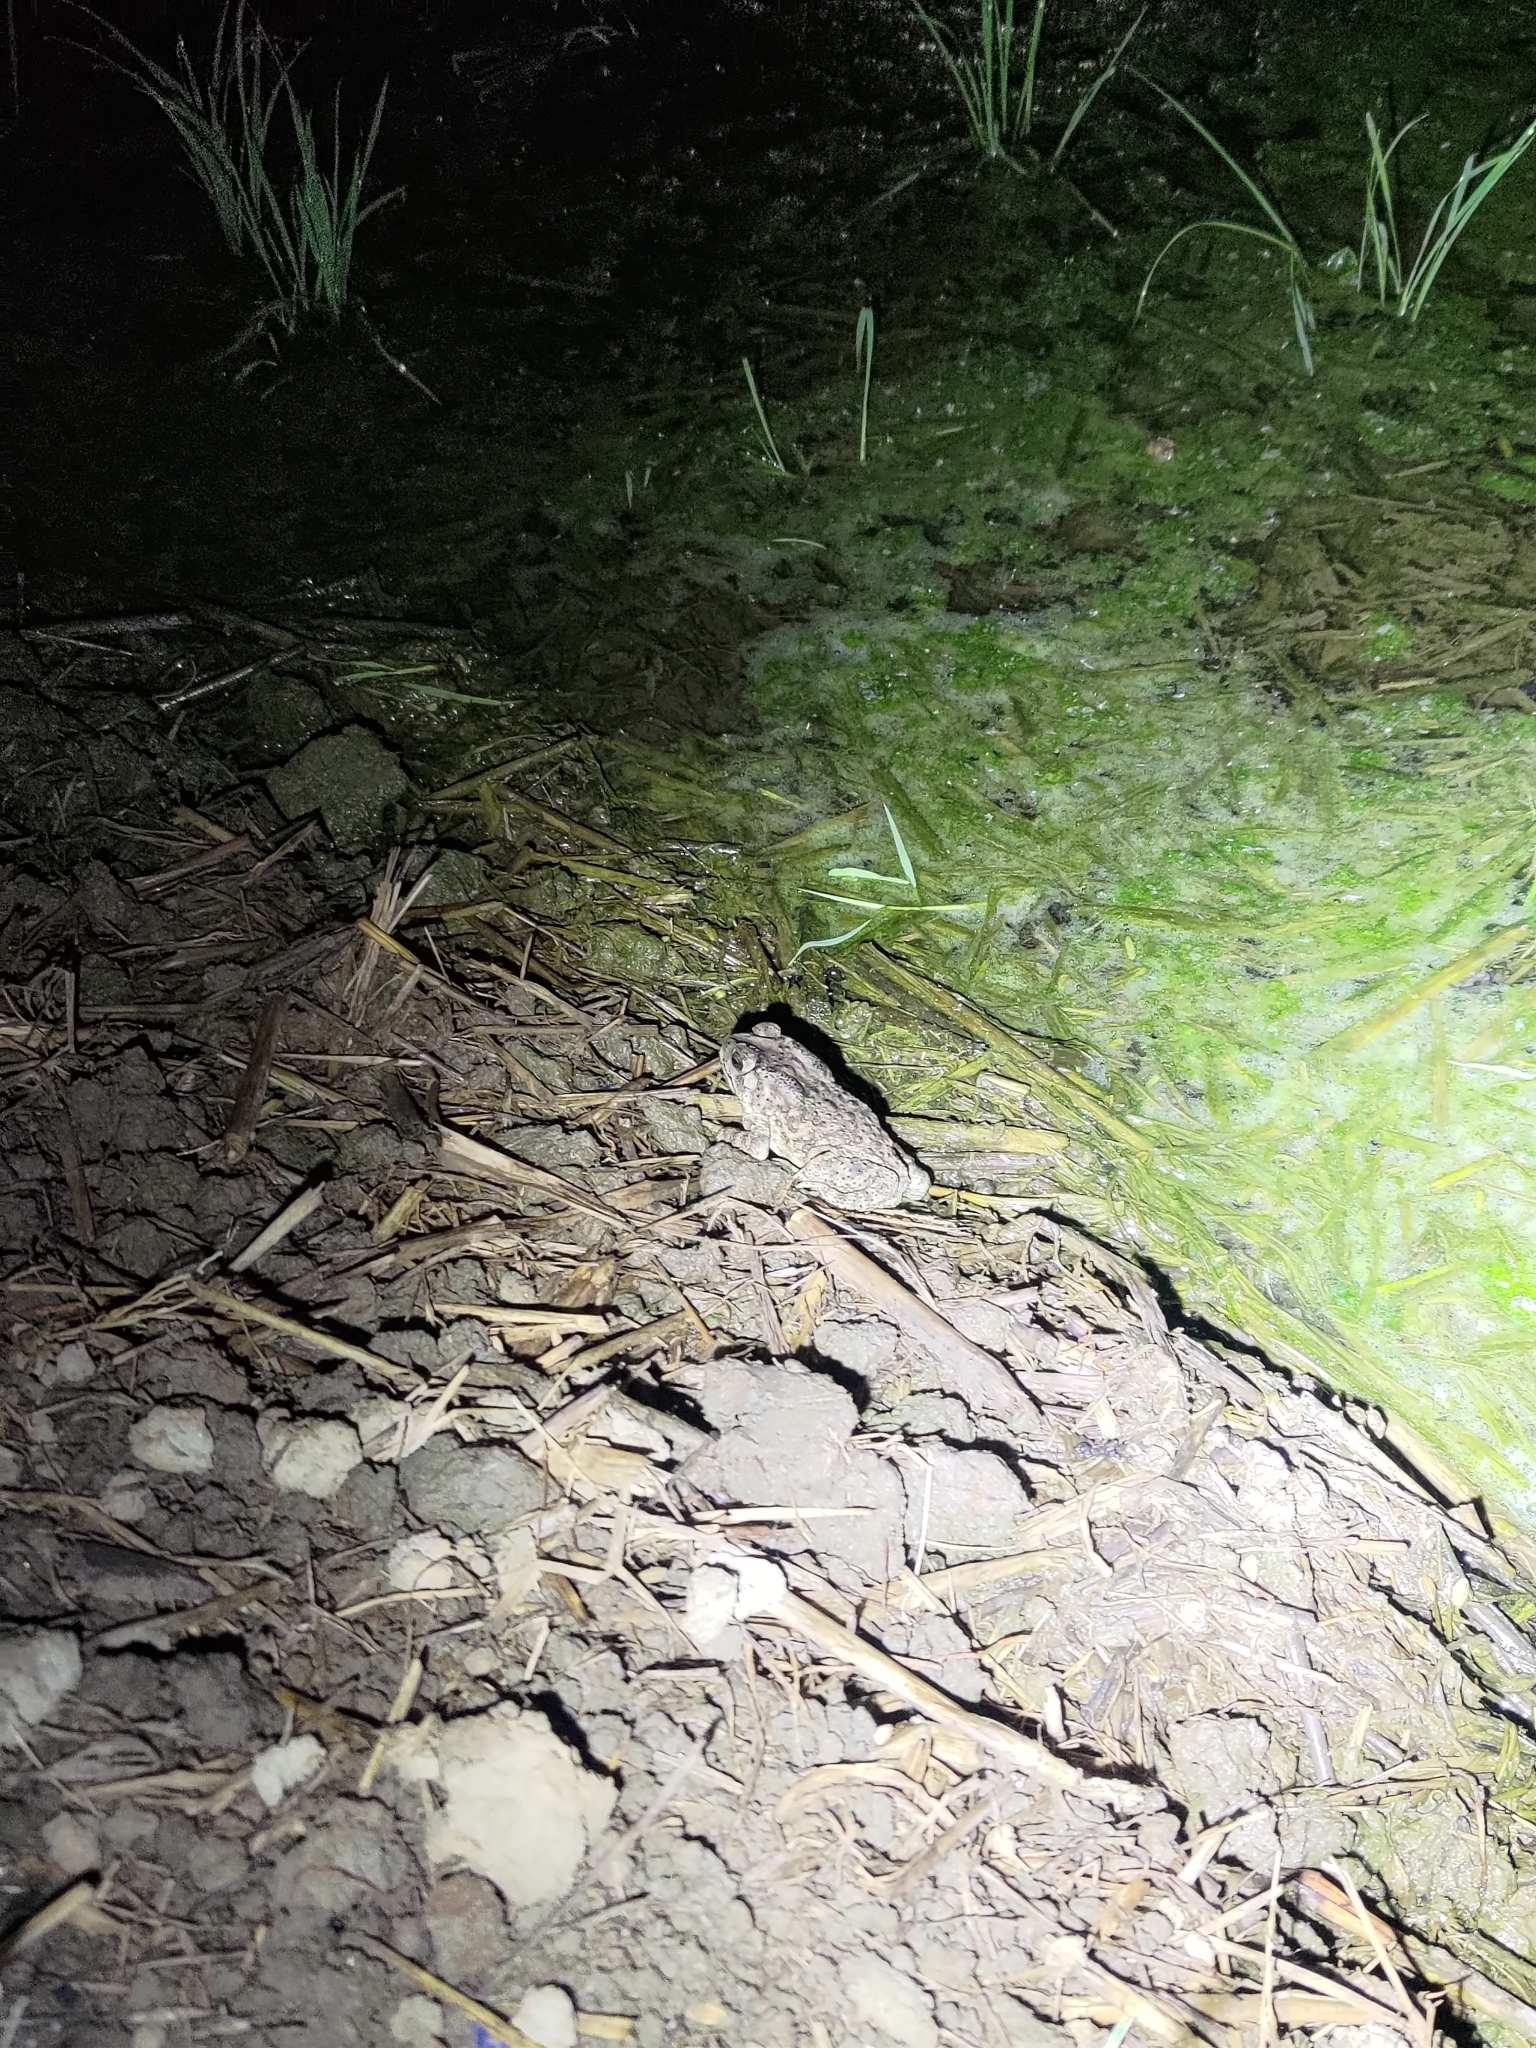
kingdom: Animalia
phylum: Chordata
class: Amphibia
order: Anura
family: Bufonidae
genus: Duttaphrynus
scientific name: Duttaphrynus melanostictus
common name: Common sunda toad
